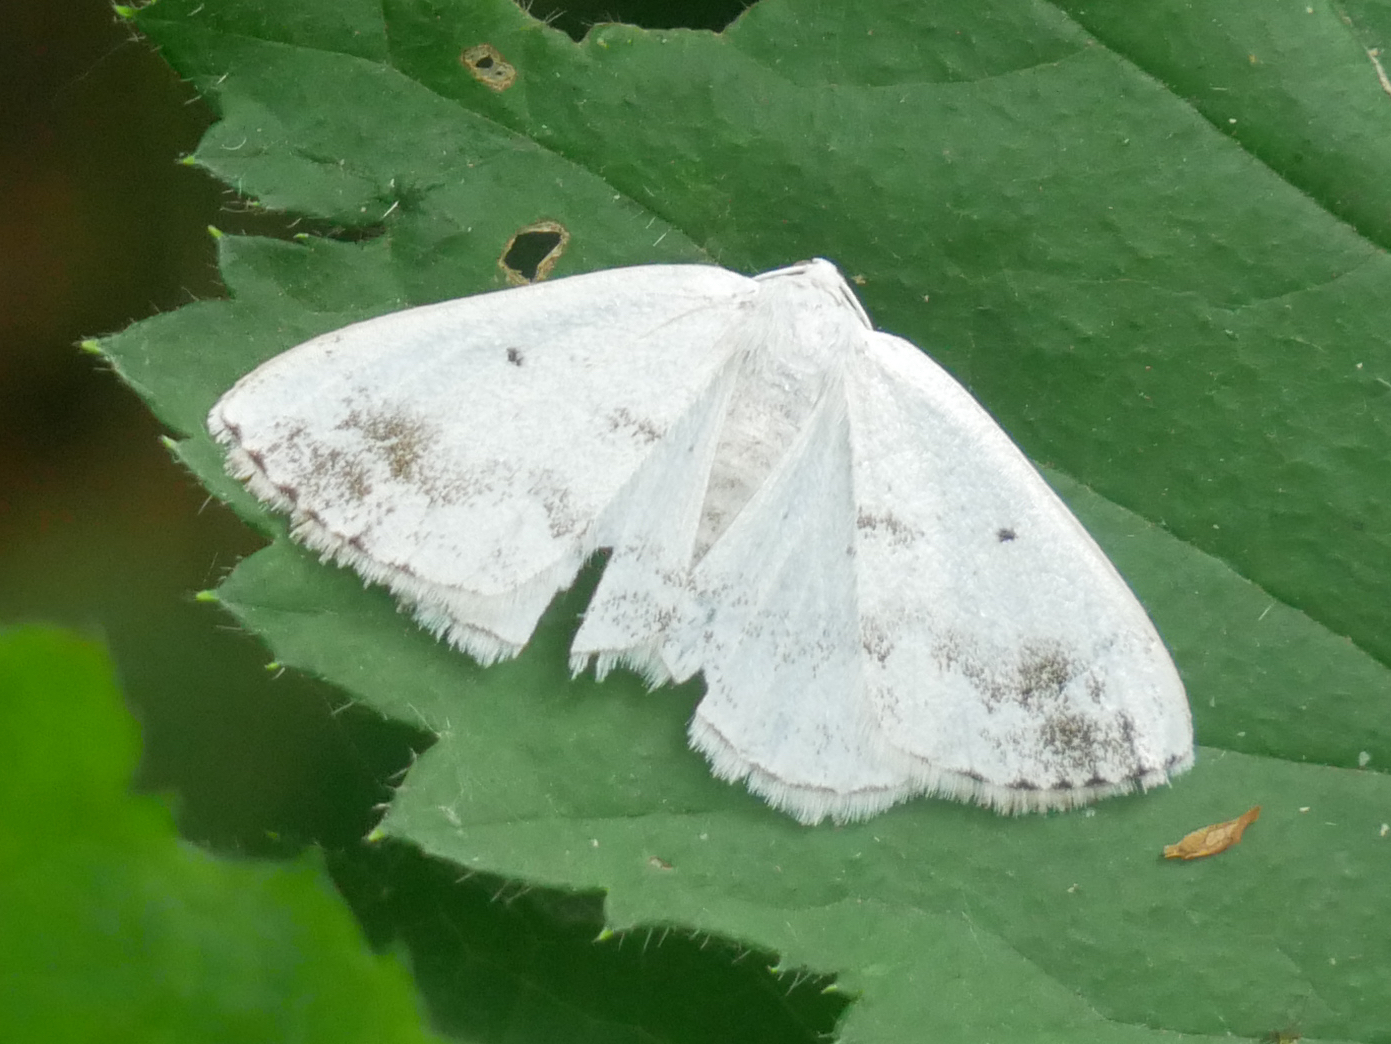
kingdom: Animalia
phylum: Arthropoda
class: Insecta
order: Lepidoptera
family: Geometridae
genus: Lomographa
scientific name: Lomographa temerata
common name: Clouded silver
